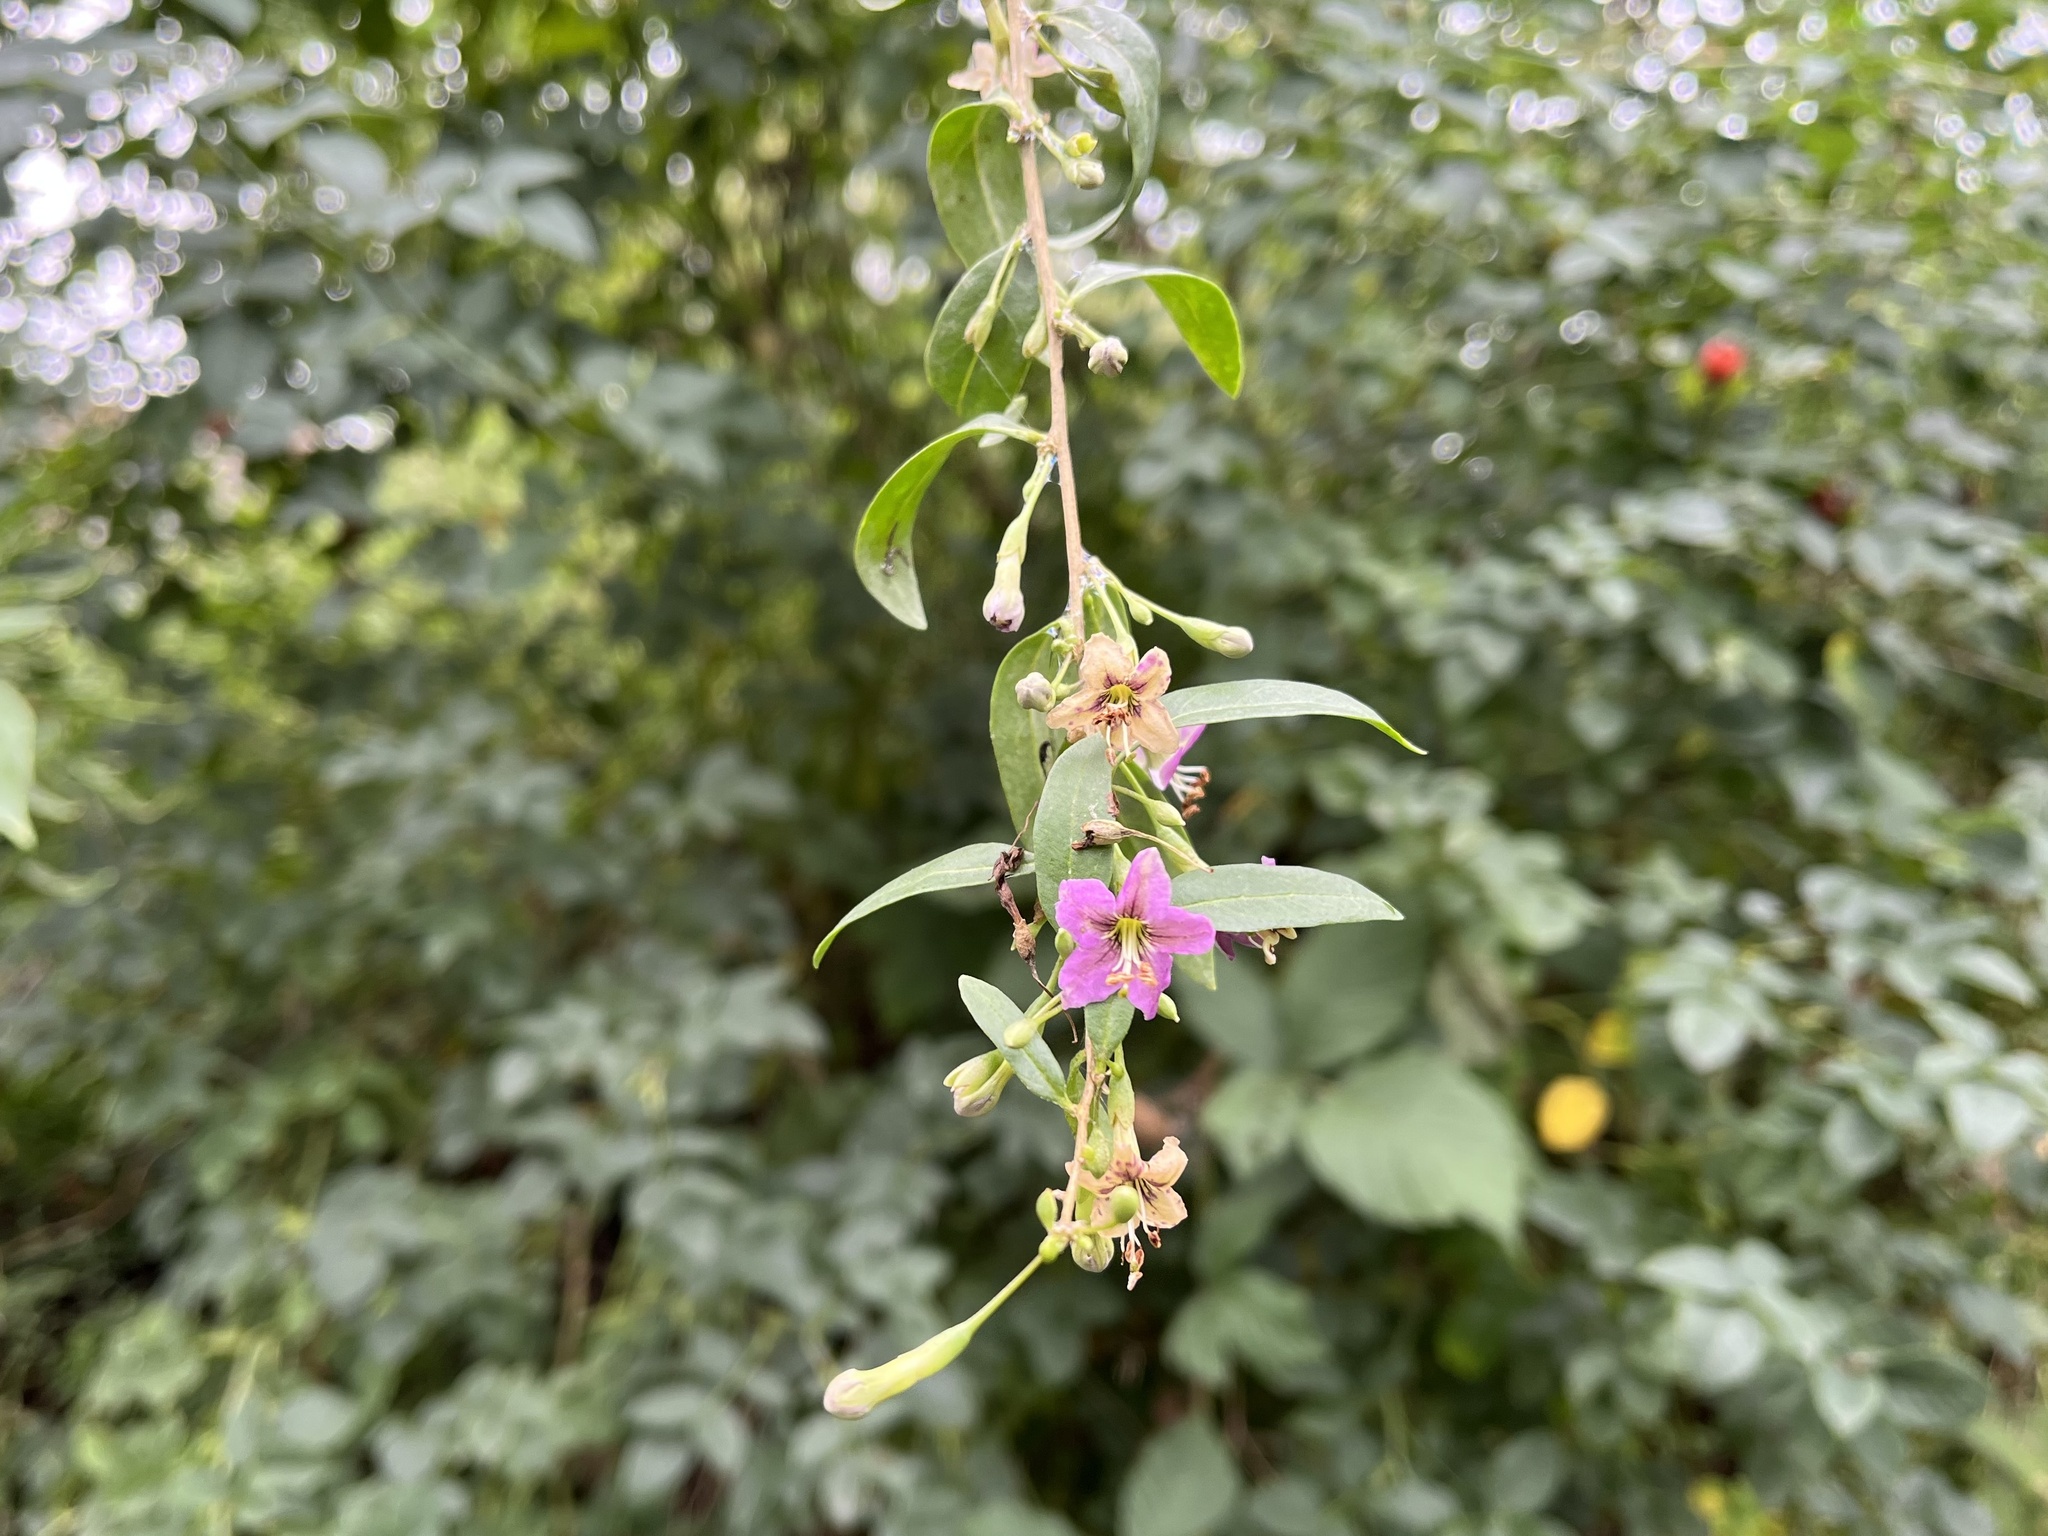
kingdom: Plantae
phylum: Tracheophyta
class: Magnoliopsida
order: Solanales
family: Solanaceae
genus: Lycium
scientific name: Lycium barbarum
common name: Duke of argyll's teaplant
